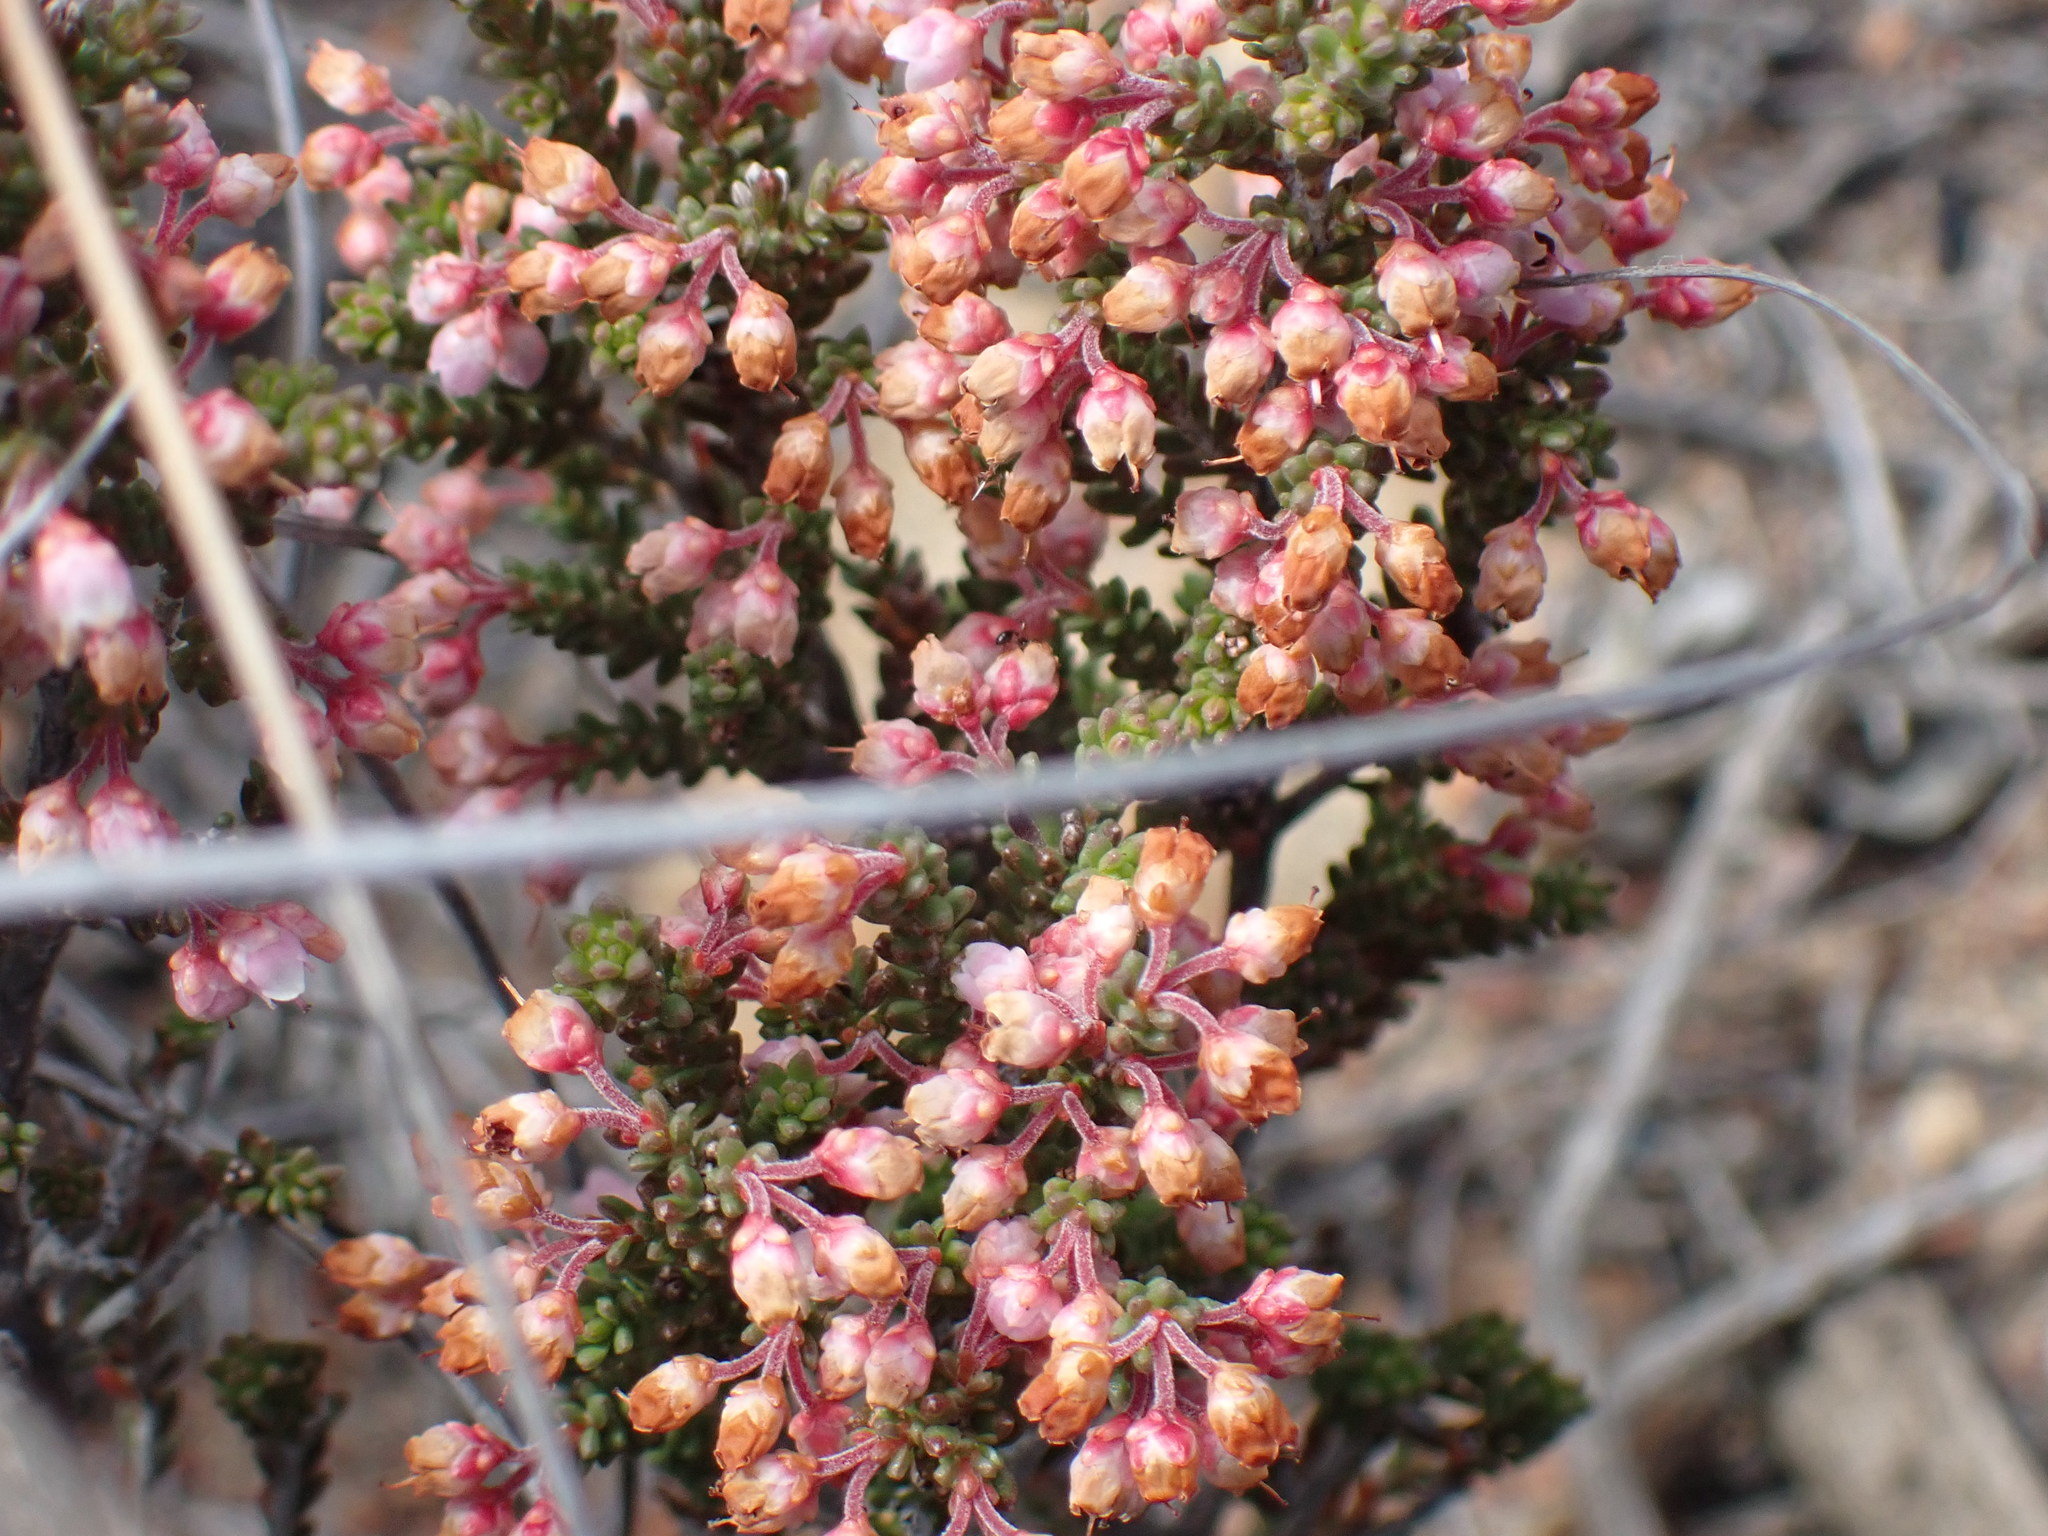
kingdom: Plantae
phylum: Tracheophyta
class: Magnoliopsida
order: Ericales
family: Ericaceae
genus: Erica
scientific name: Erica umbelliflora
